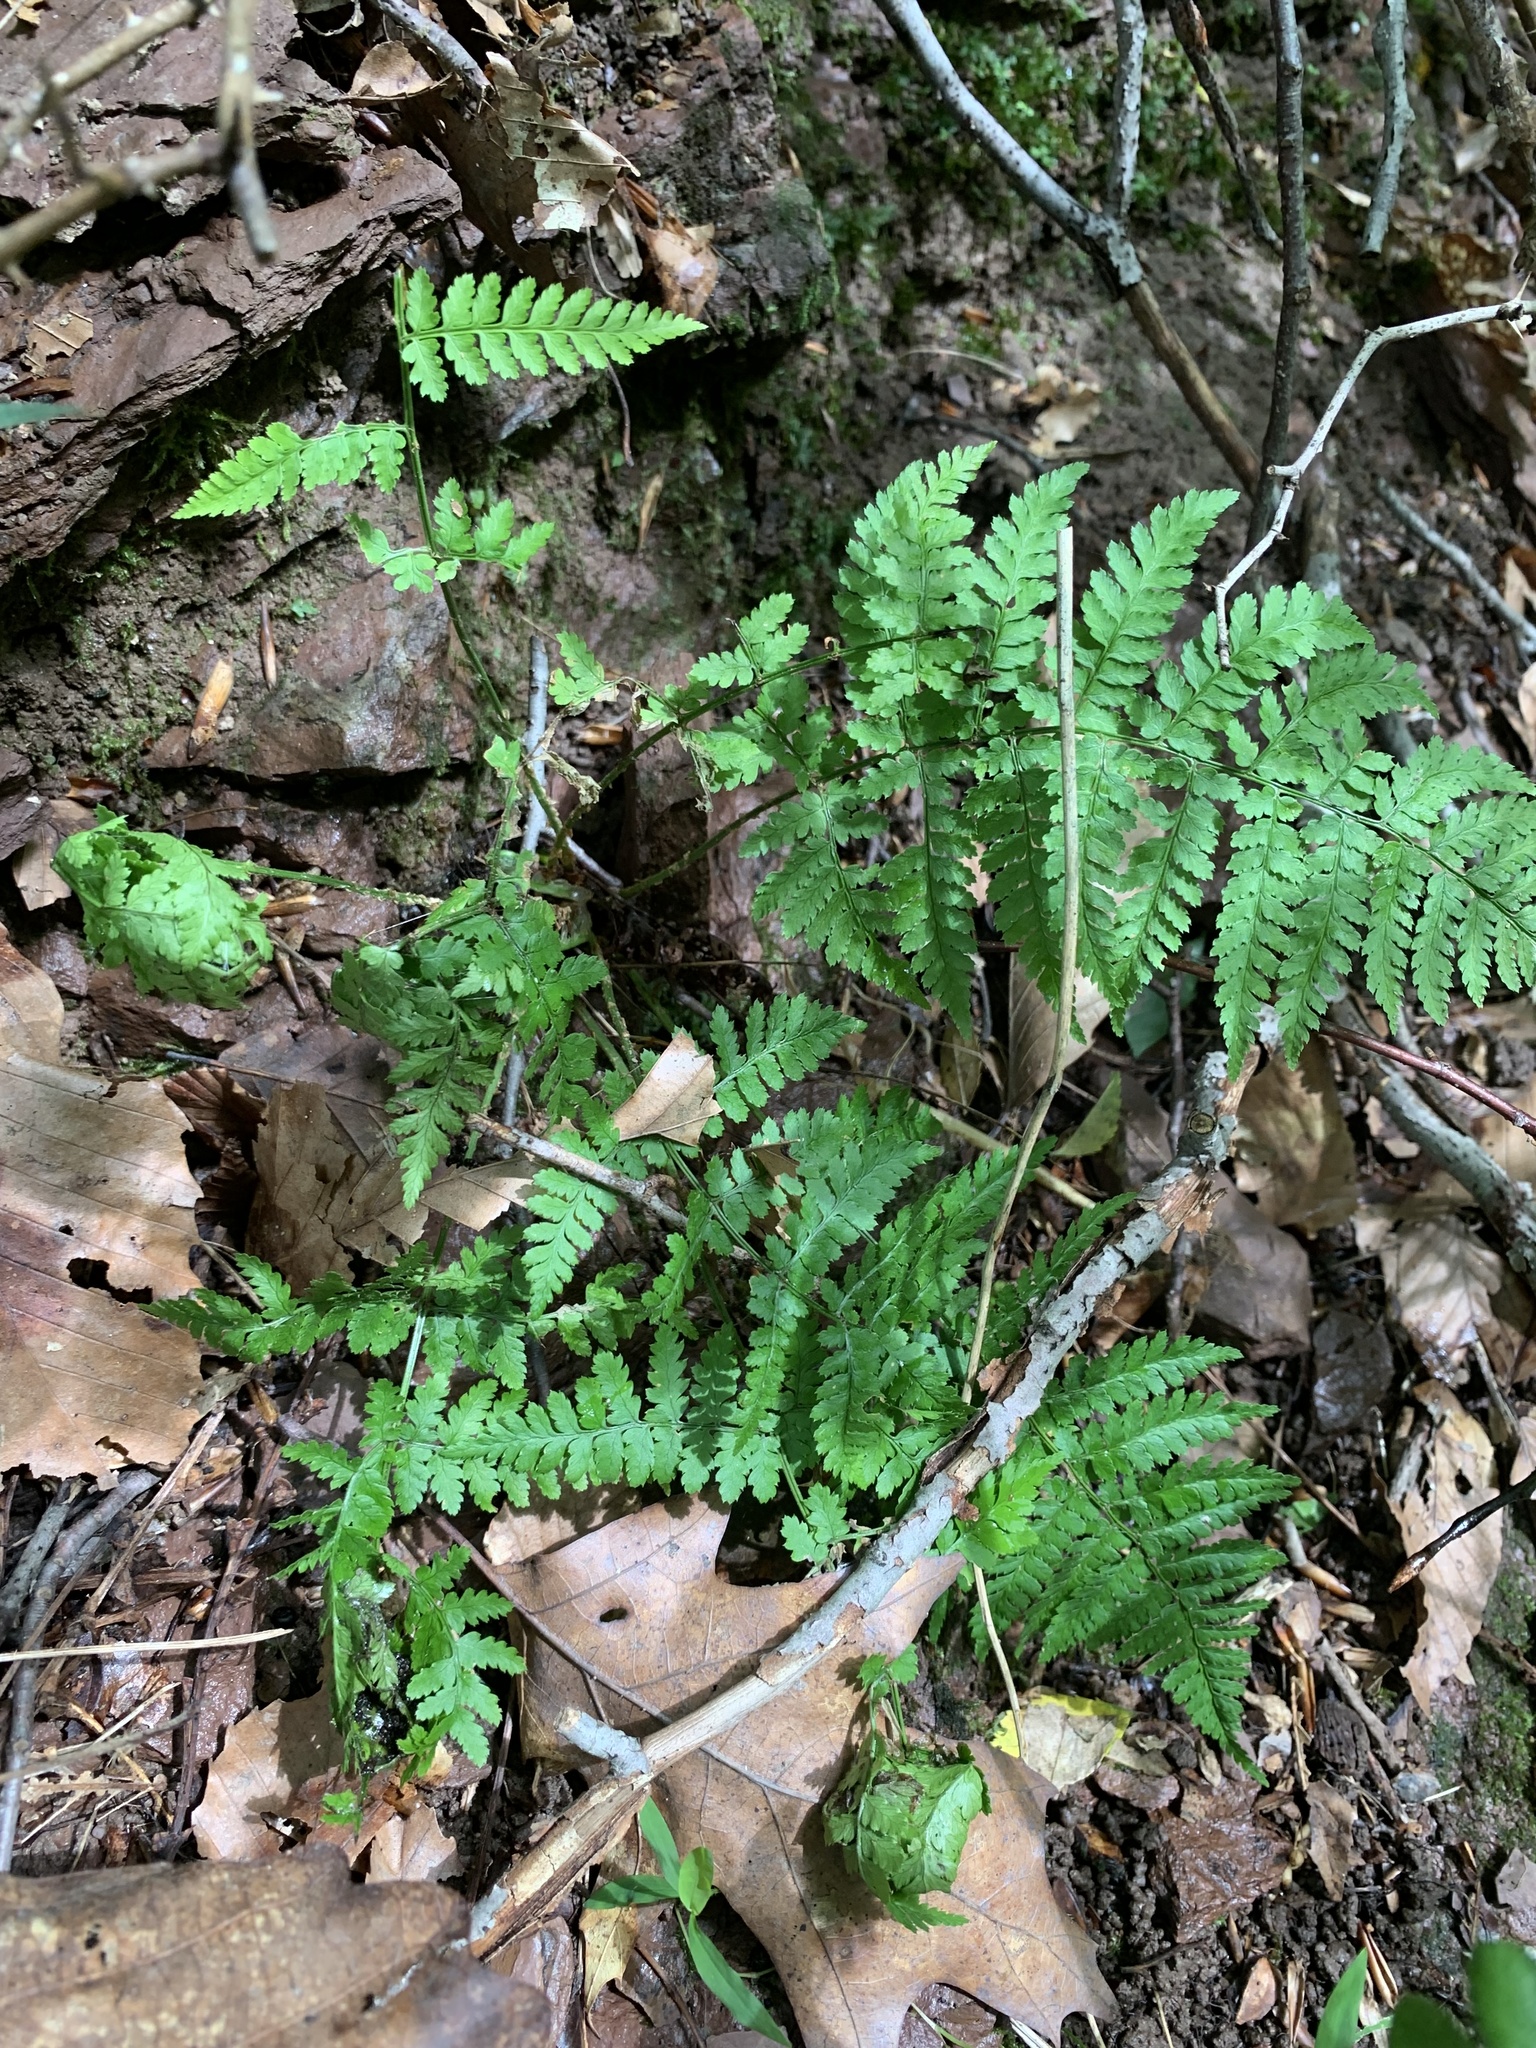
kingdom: Plantae
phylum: Tracheophyta
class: Polypodiopsida
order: Polypodiales
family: Dryopteridaceae
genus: Dryopteris
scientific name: Dryopteris intermedia
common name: Evergreen wood fern
